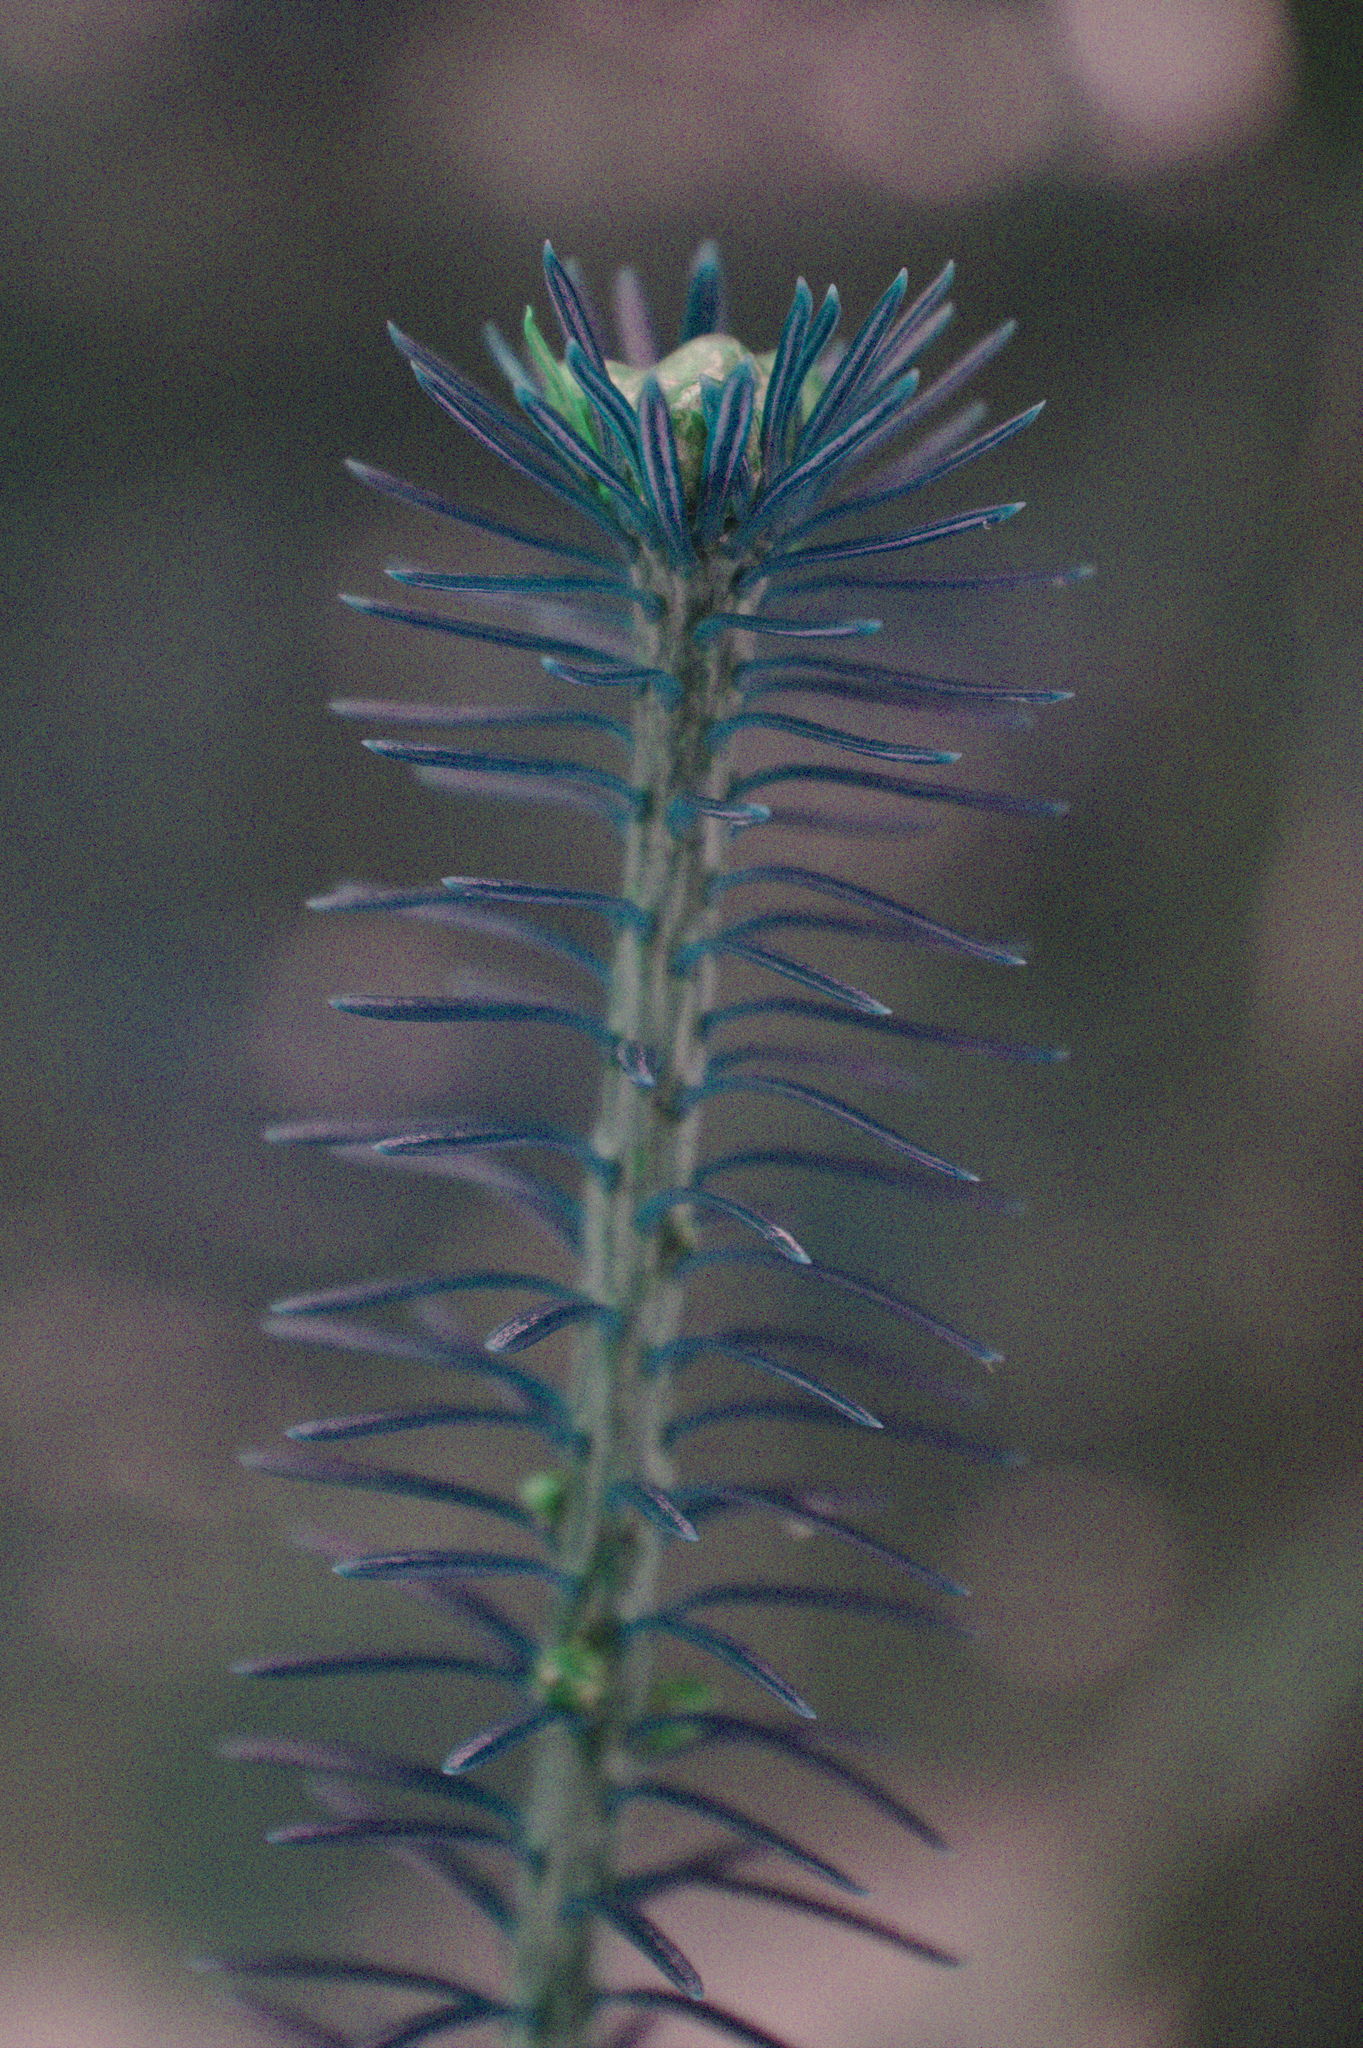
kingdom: Plantae
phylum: Tracheophyta
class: Pinopsida
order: Pinales
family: Pinaceae
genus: Abies
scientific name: Abies balsamea
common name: Balsam fir
